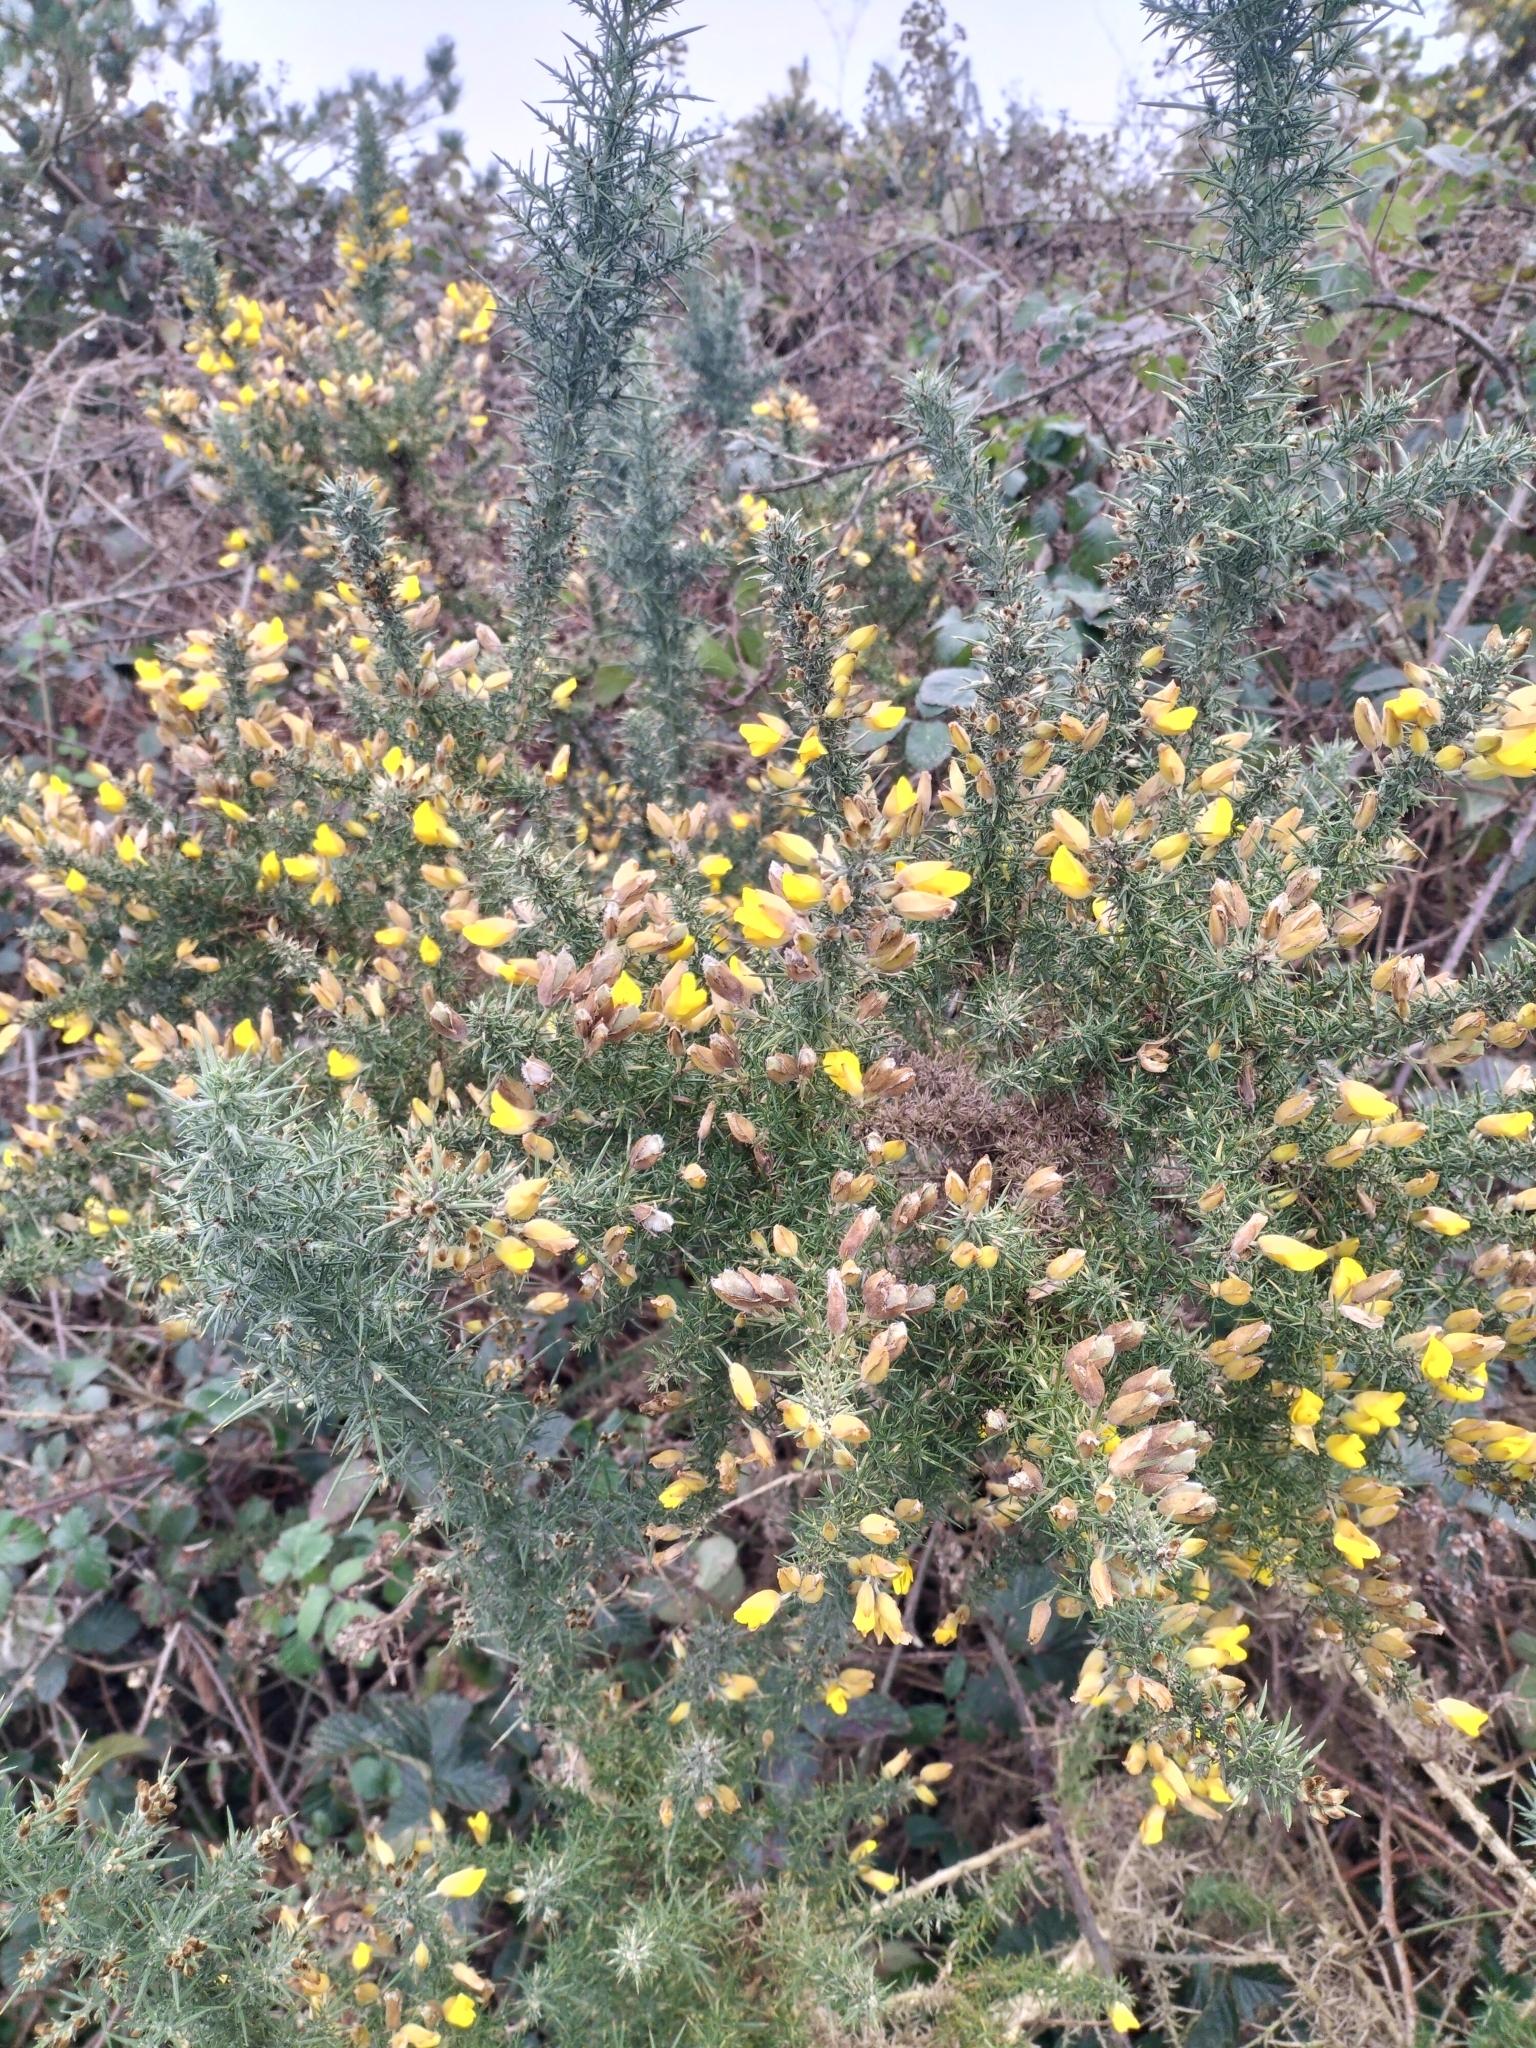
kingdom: Plantae
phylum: Tracheophyta
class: Magnoliopsida
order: Fabales
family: Fabaceae
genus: Ulex
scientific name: Ulex europaeus
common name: Common gorse
